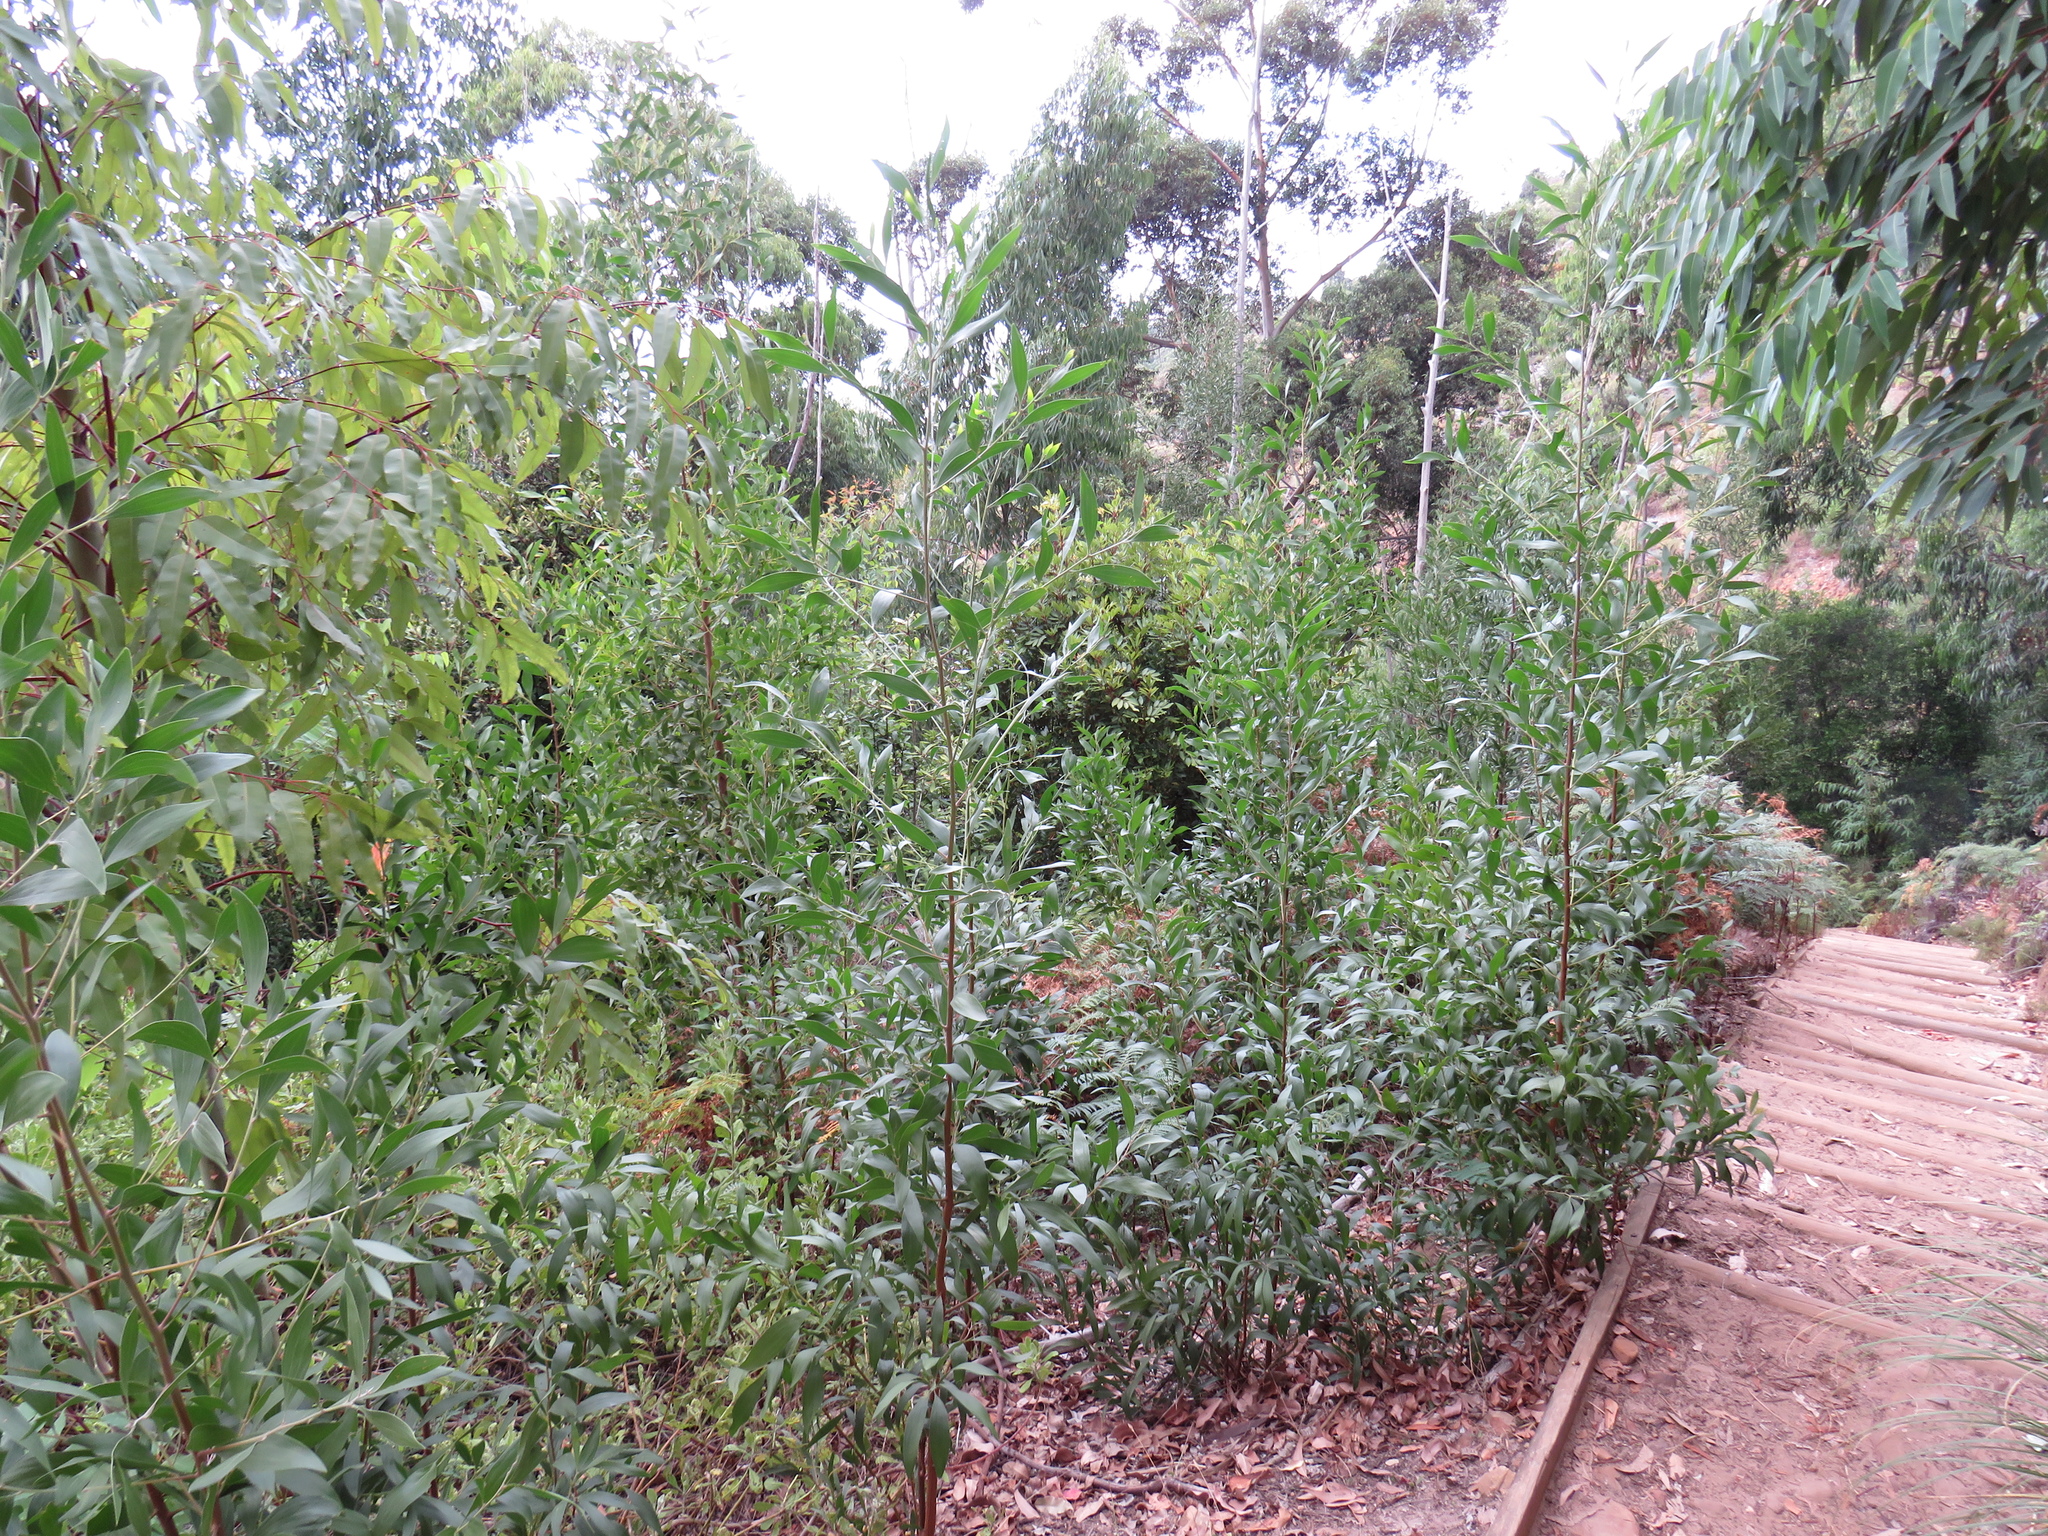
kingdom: Plantae
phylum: Tracheophyta
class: Magnoliopsida
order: Fabales
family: Fabaceae
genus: Acacia
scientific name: Acacia melanoxylon
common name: Blackwood
